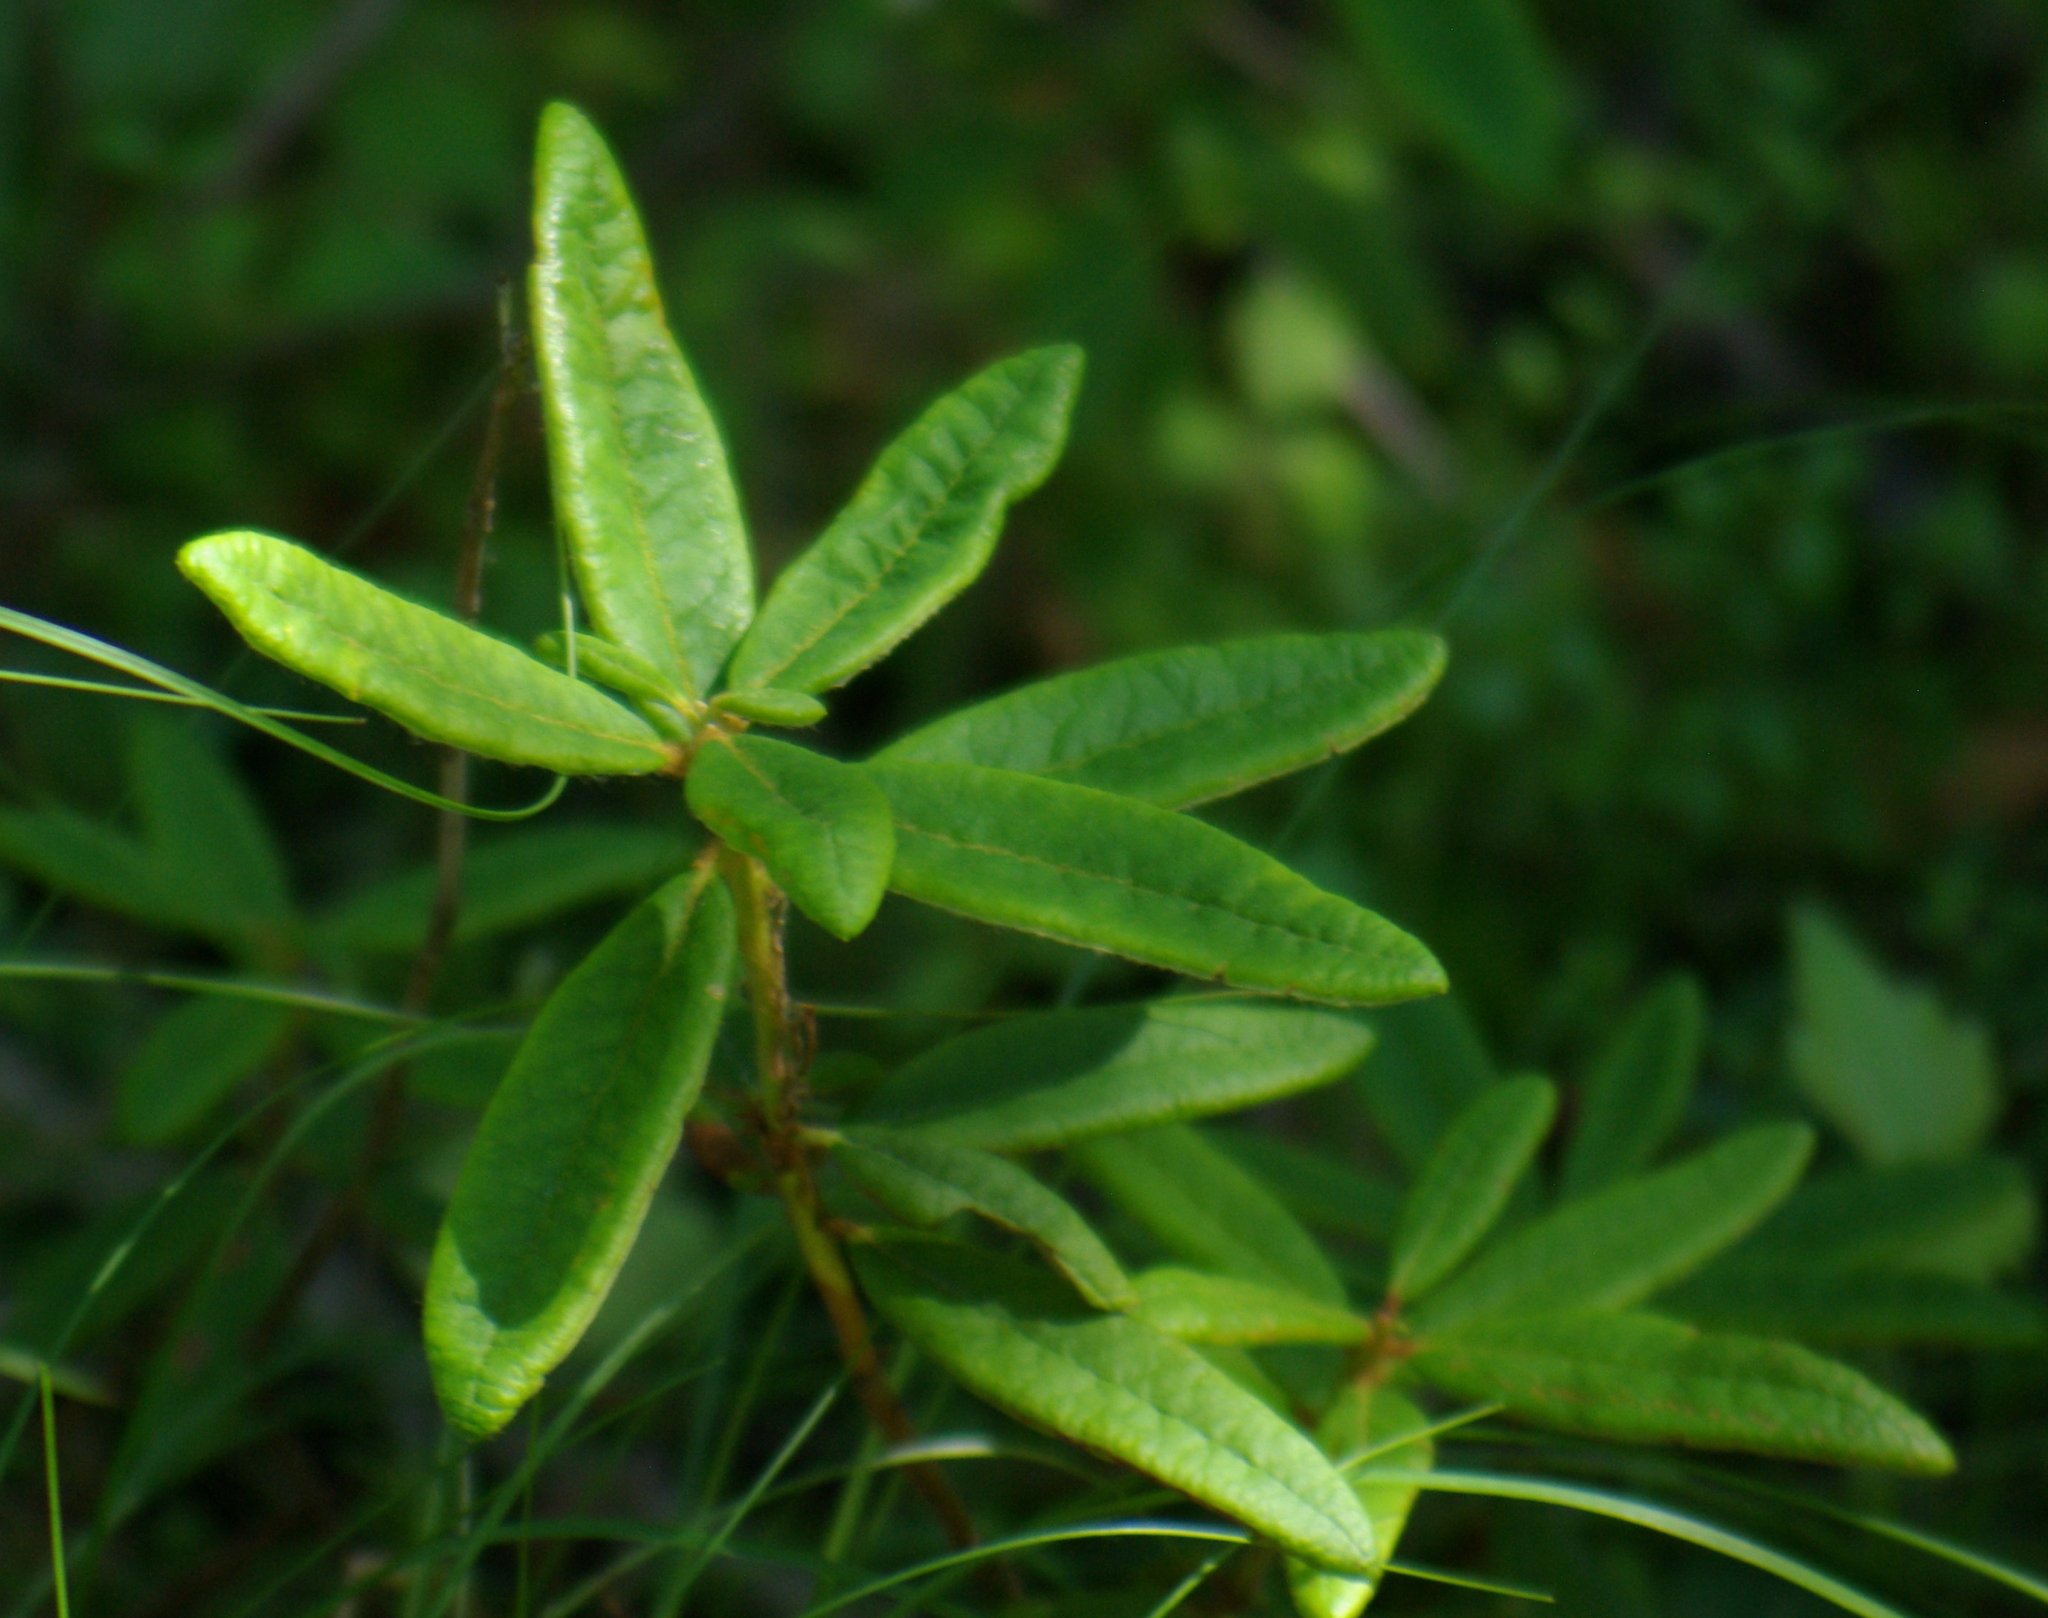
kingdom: Plantae
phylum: Tracheophyta
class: Magnoliopsida
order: Ericales
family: Ericaceae
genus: Rhododendron
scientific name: Rhododendron groenlandicum
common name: Bog labrador tea
